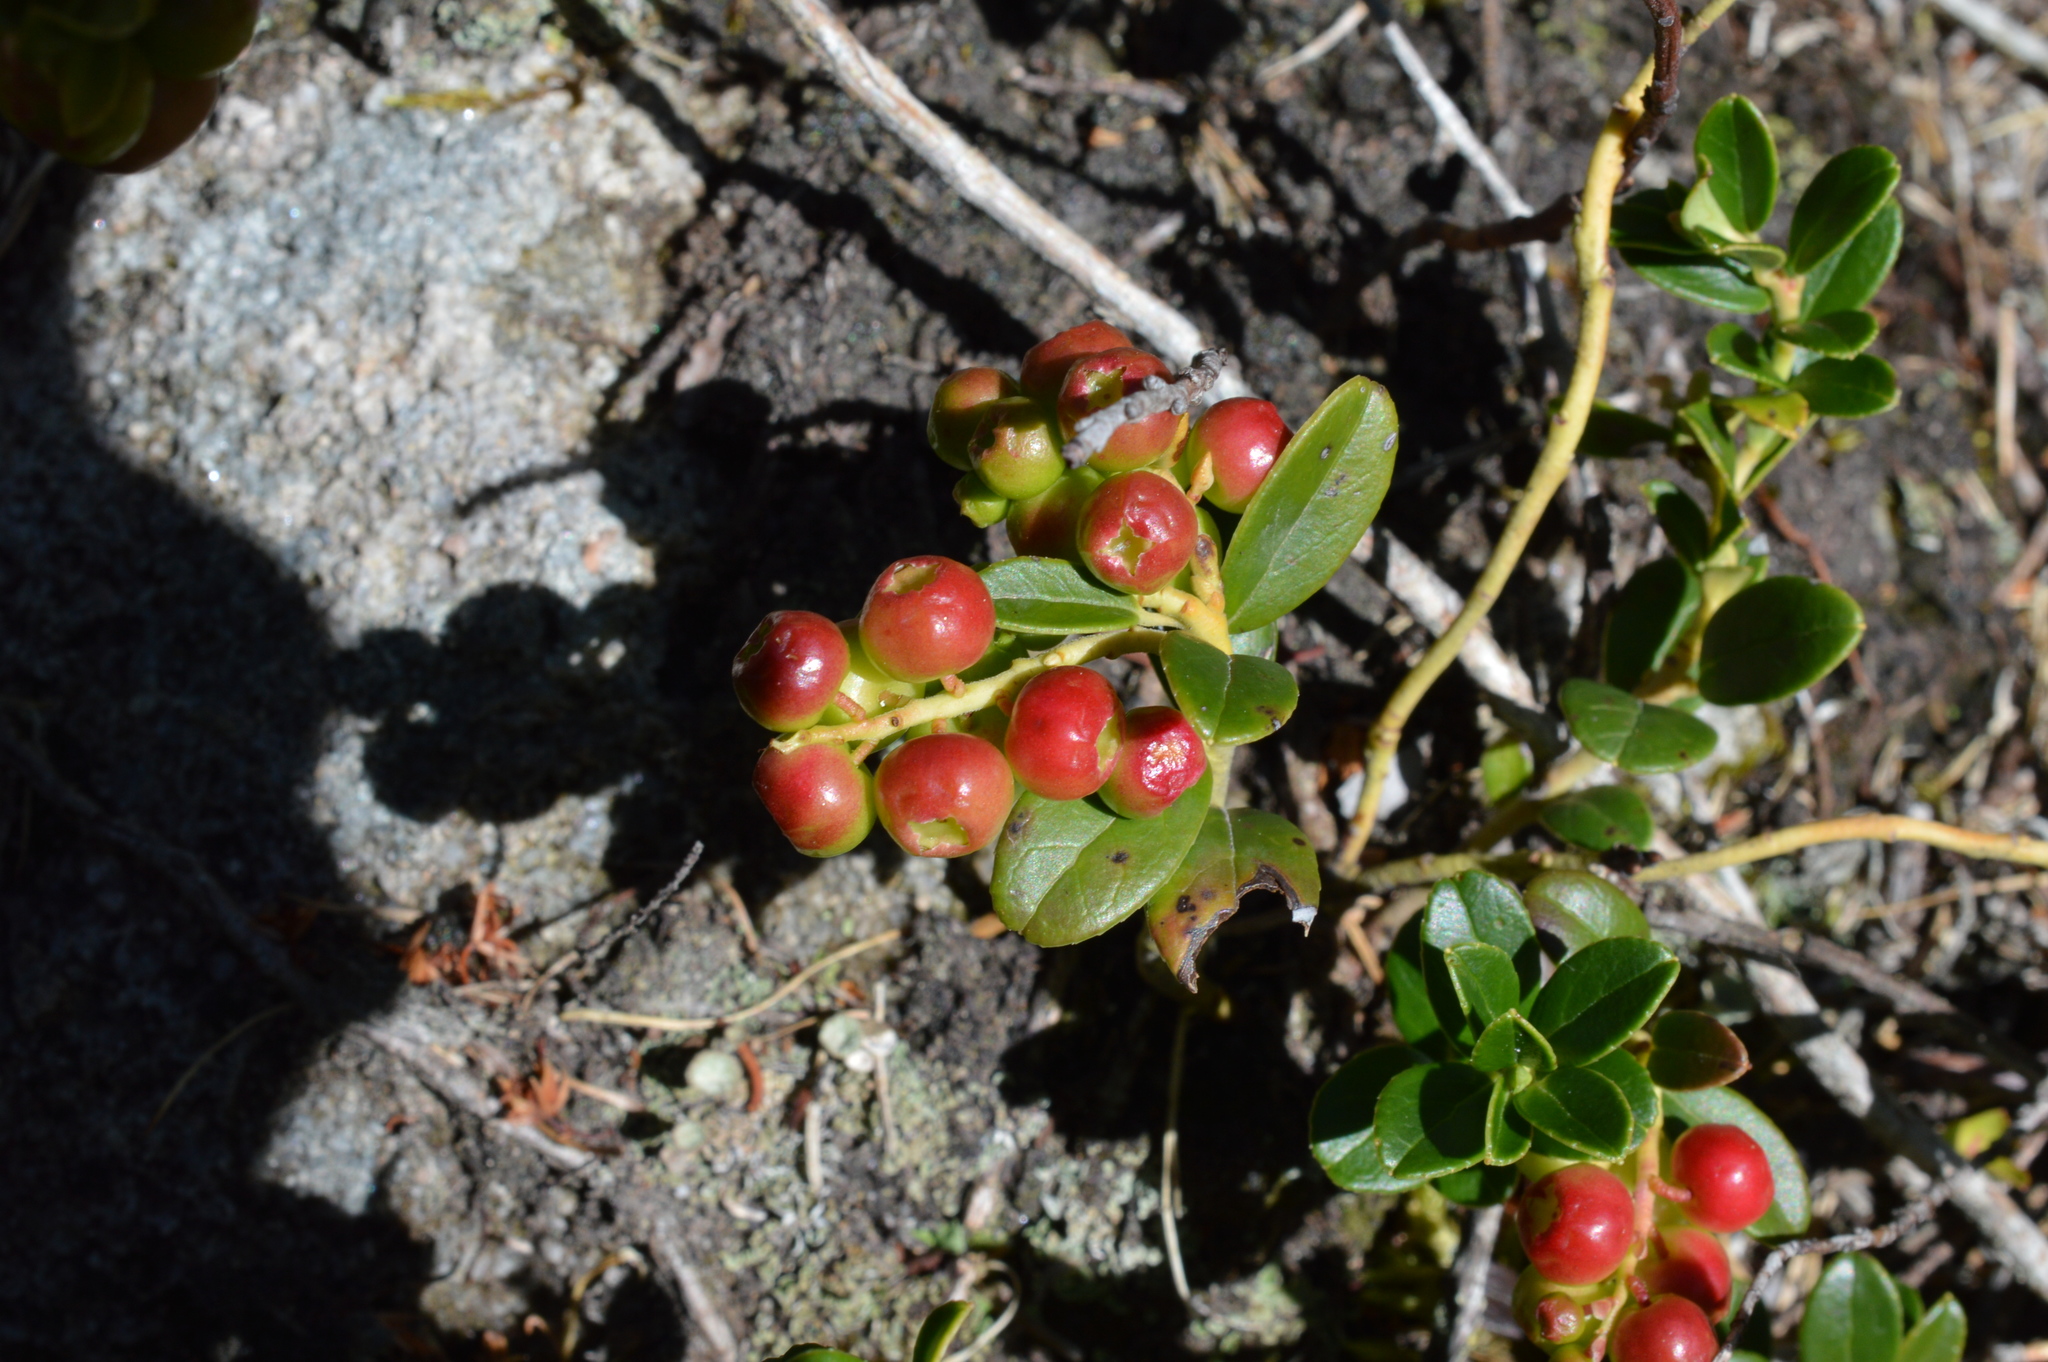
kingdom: Plantae
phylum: Tracheophyta
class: Magnoliopsida
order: Ericales
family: Ericaceae
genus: Vaccinium
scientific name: Vaccinium vitis-idaea
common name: Cowberry
